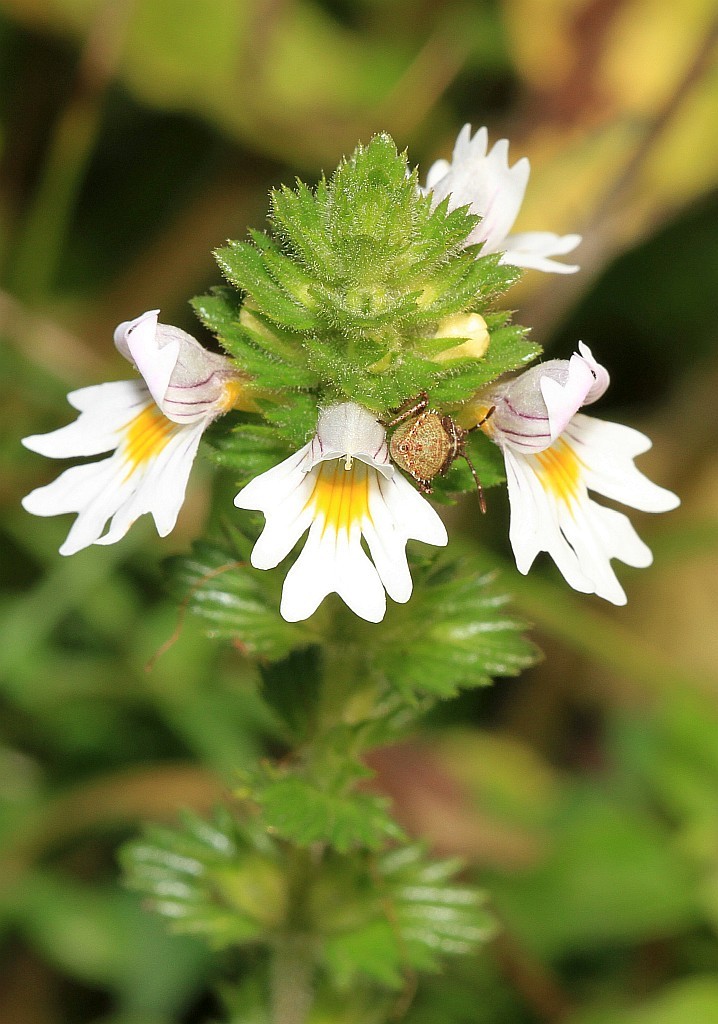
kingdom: Plantae
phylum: Tracheophyta
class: Magnoliopsida
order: Lamiales
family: Orobanchaceae
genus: Euphrasia
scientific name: Euphrasia officinalis
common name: Eyebright
